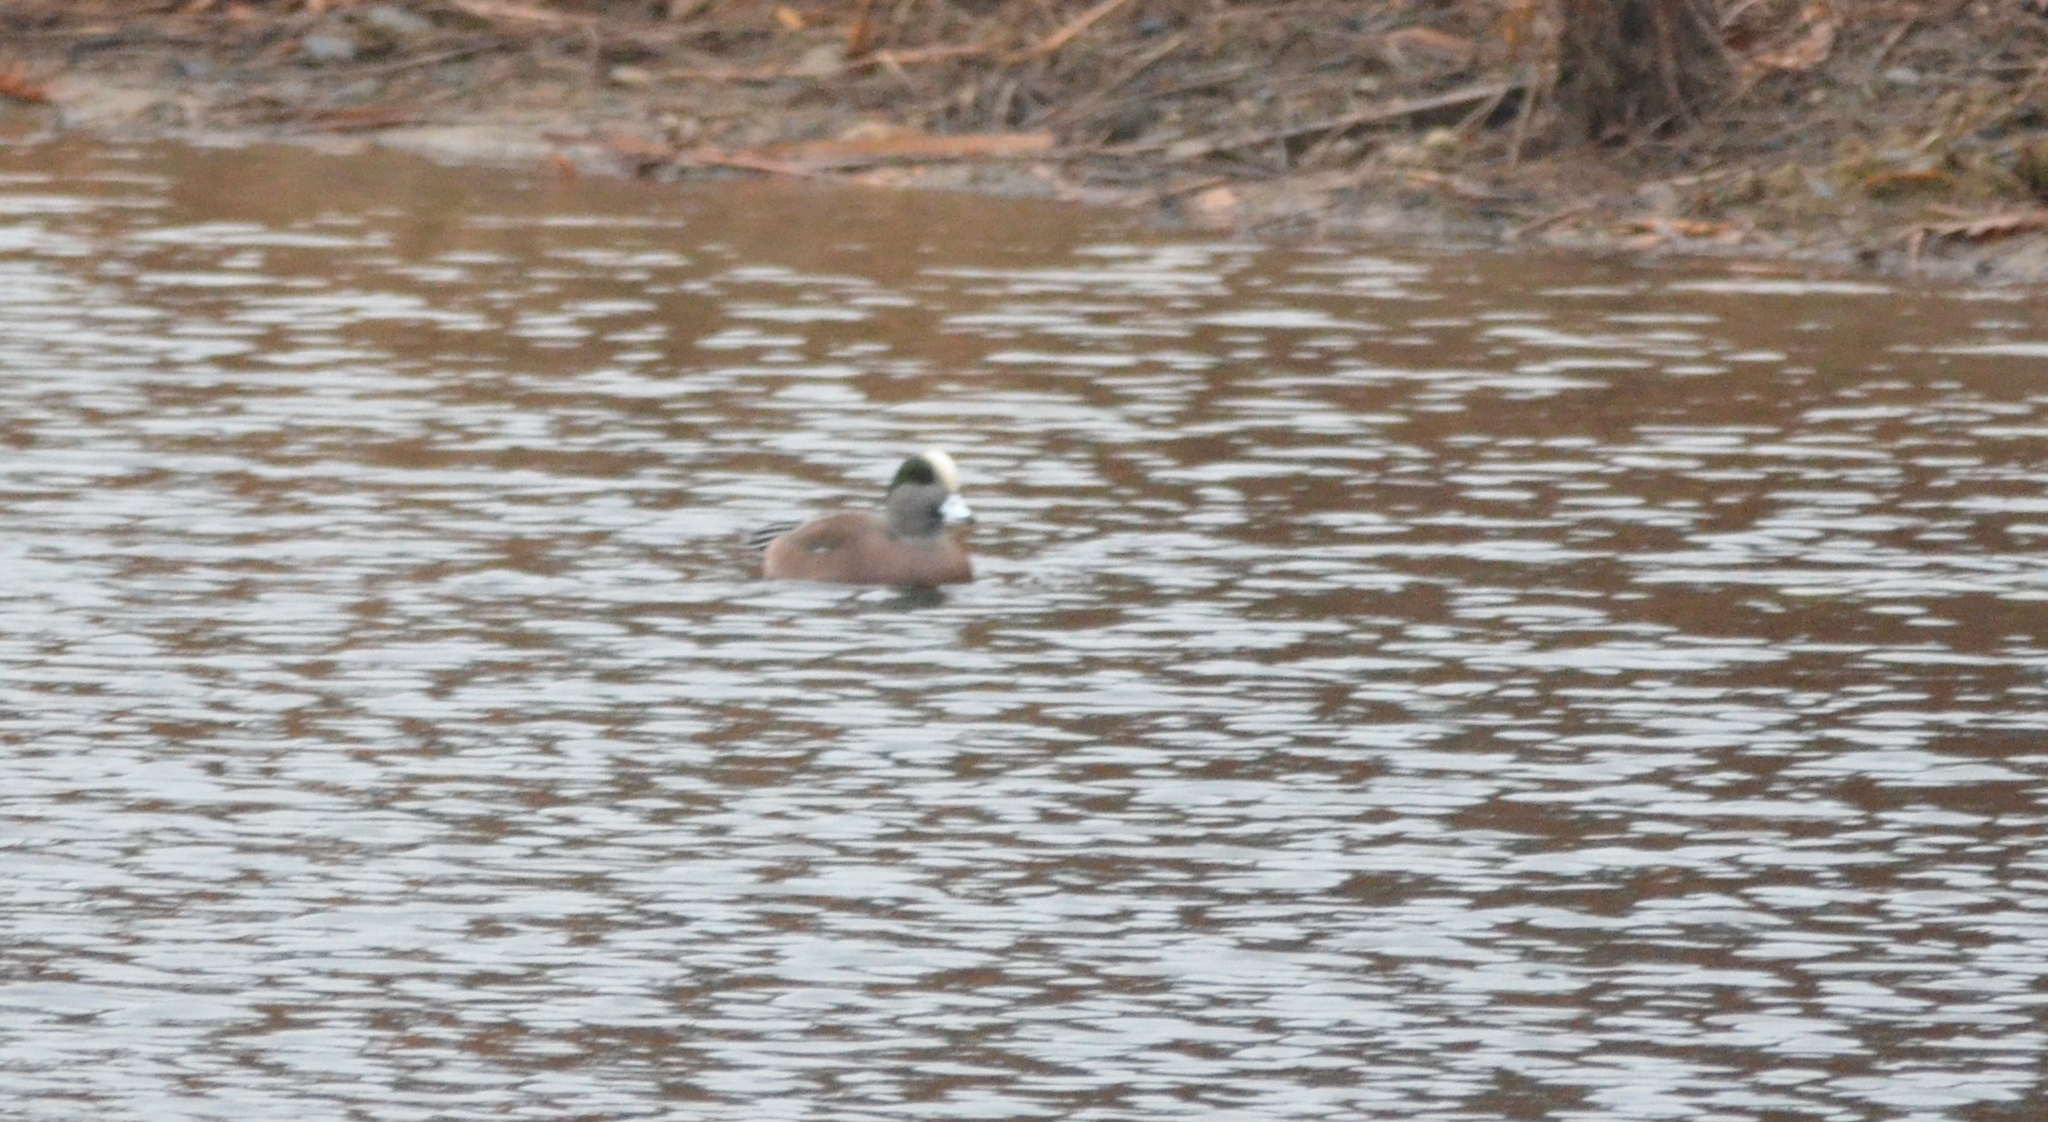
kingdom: Animalia
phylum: Chordata
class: Aves
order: Anseriformes
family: Anatidae
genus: Mareca
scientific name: Mareca americana
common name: American wigeon
